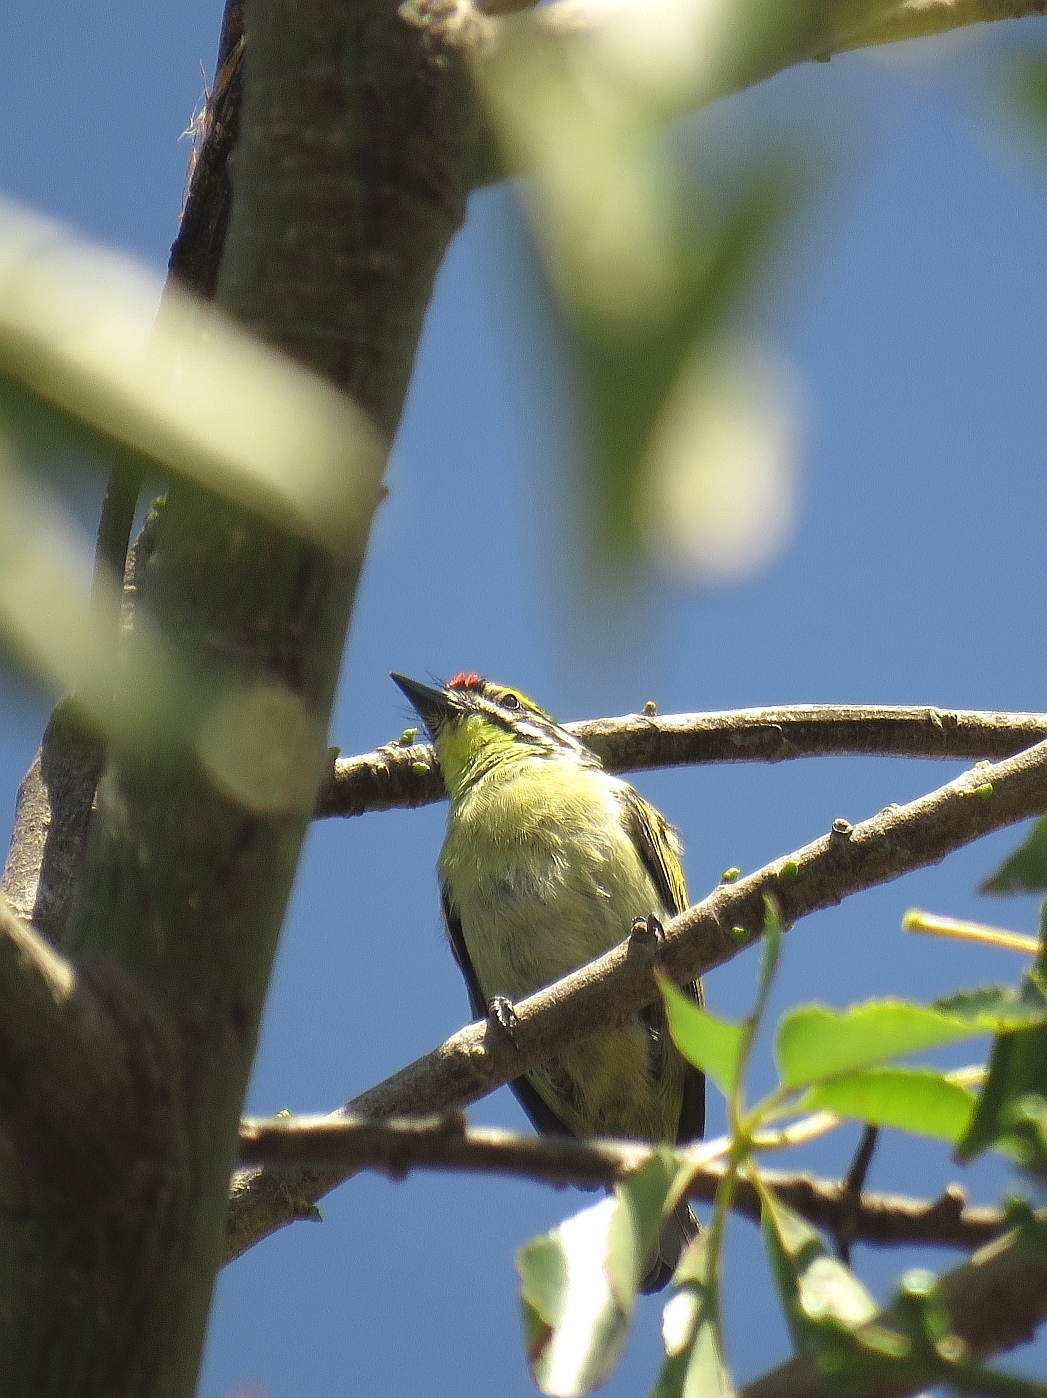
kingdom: Animalia
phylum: Chordata
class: Aves
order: Piciformes
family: Lybiidae
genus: Pogoniulus
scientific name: Pogoniulus pusillus
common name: Red-fronted tinkerbird
